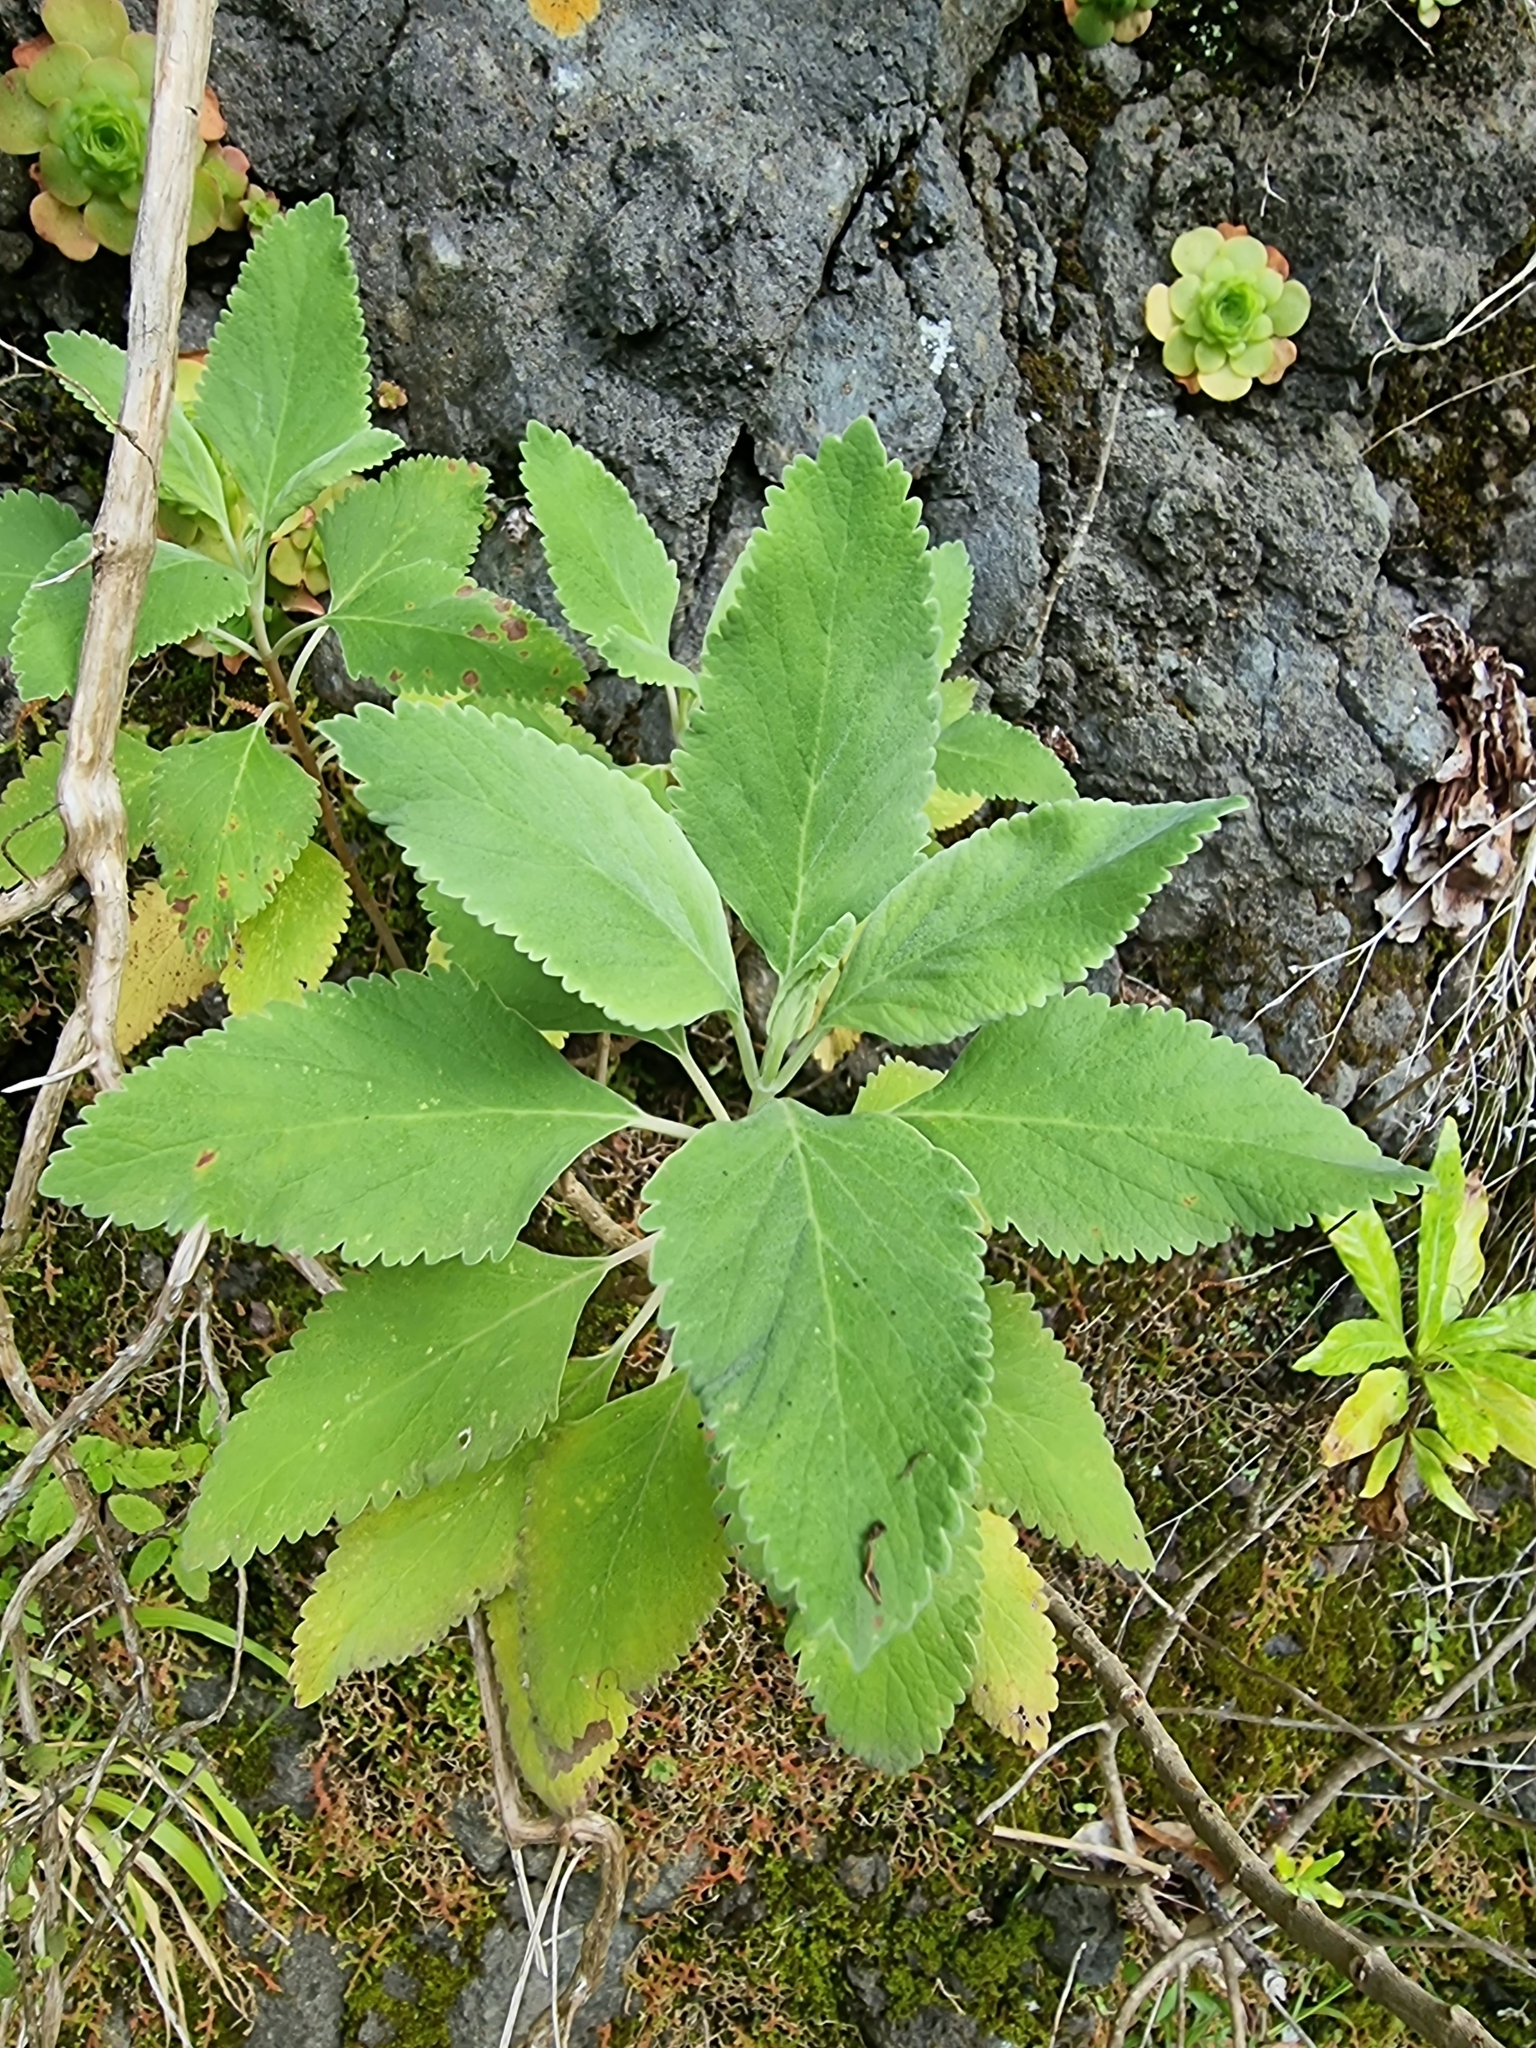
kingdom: Plantae
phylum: Tracheophyta
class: Magnoliopsida
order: Lamiales
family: Lamiaceae
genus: Teucrium
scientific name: Teucrium betonicum
